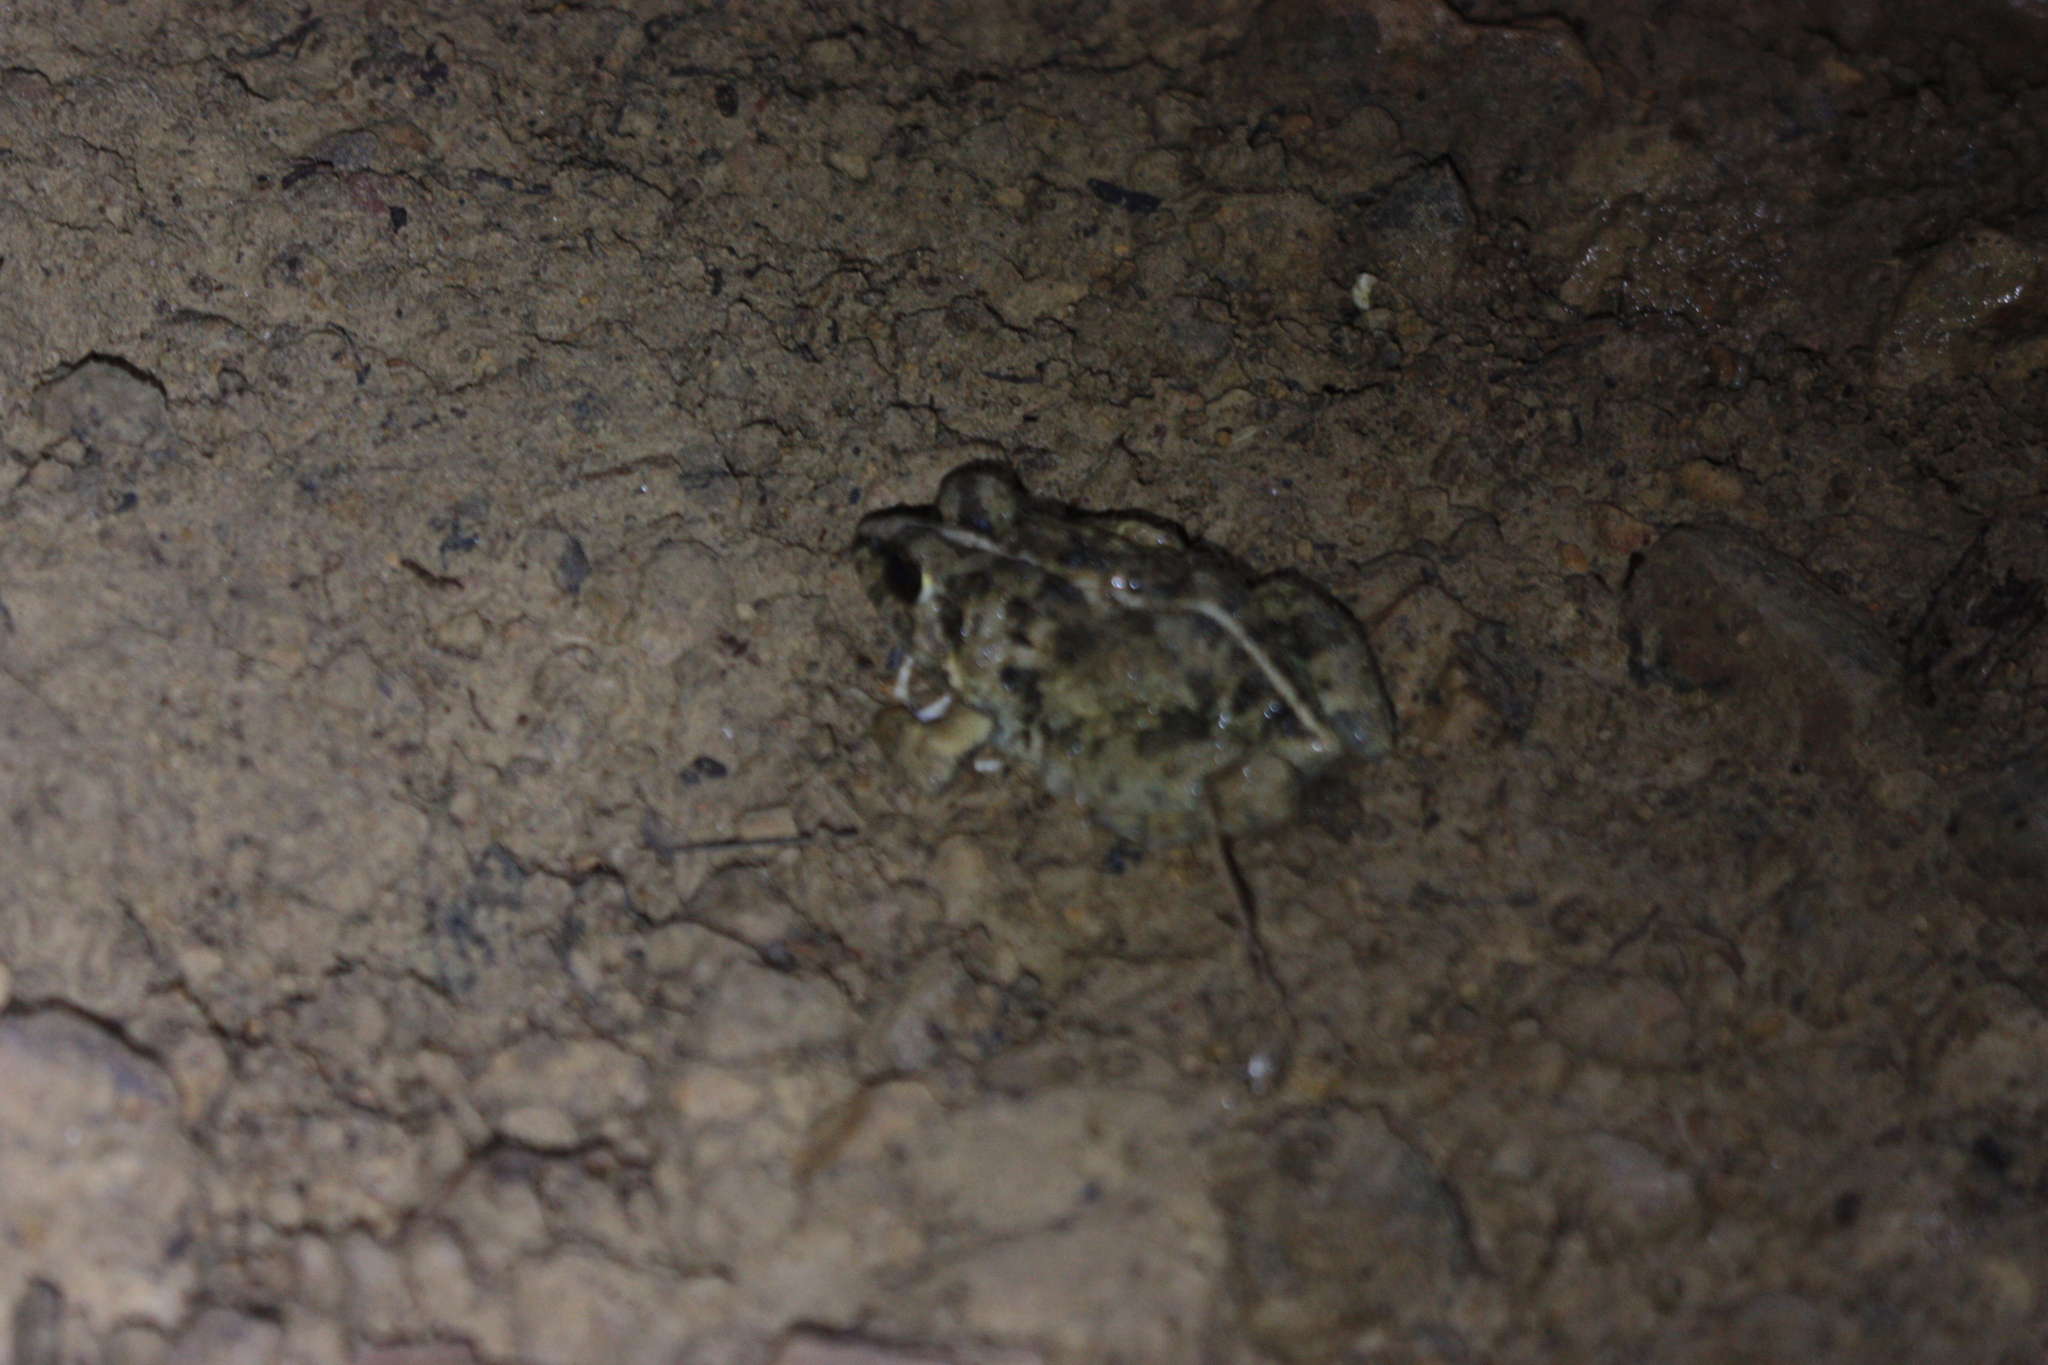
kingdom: Animalia
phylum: Chordata
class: Amphibia
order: Anura
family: Dicroglossidae
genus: Fejervarya
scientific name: Fejervarya limnocharis
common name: Asian grass frog/common pond frog/field frog/grass frog/indian rice frog
